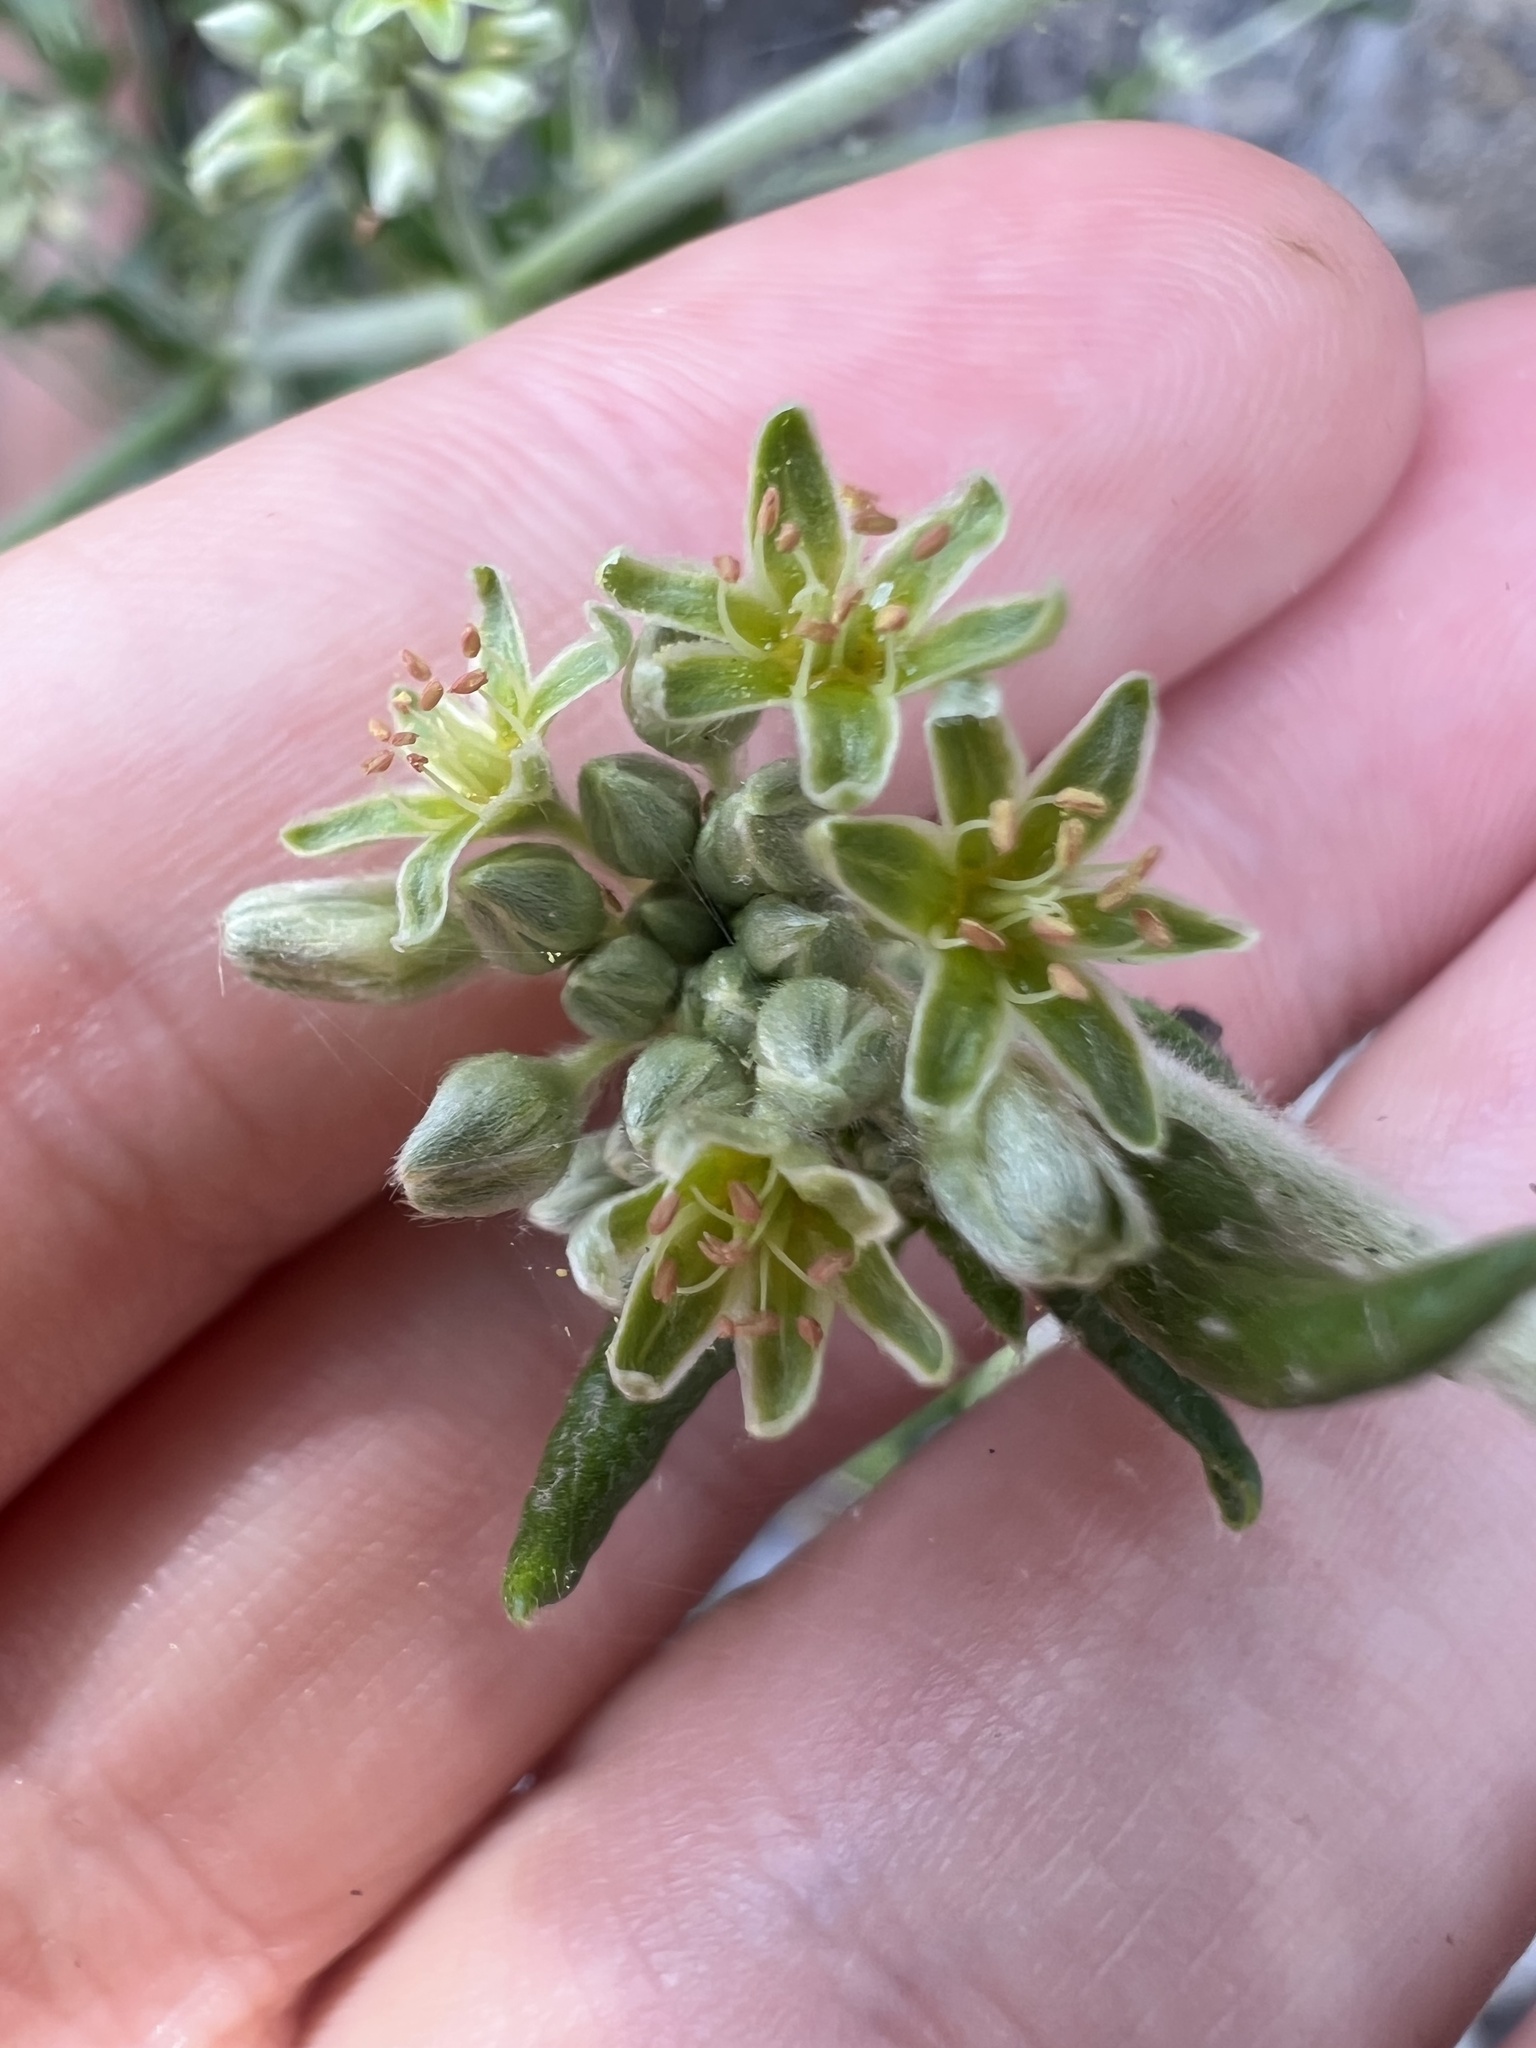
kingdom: Plantae
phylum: Tracheophyta
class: Magnoliopsida
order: Caryophyllales
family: Polygonaceae
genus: Eriogonum
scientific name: Eriogonum longifolium
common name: Longleaf wild buckwheat
